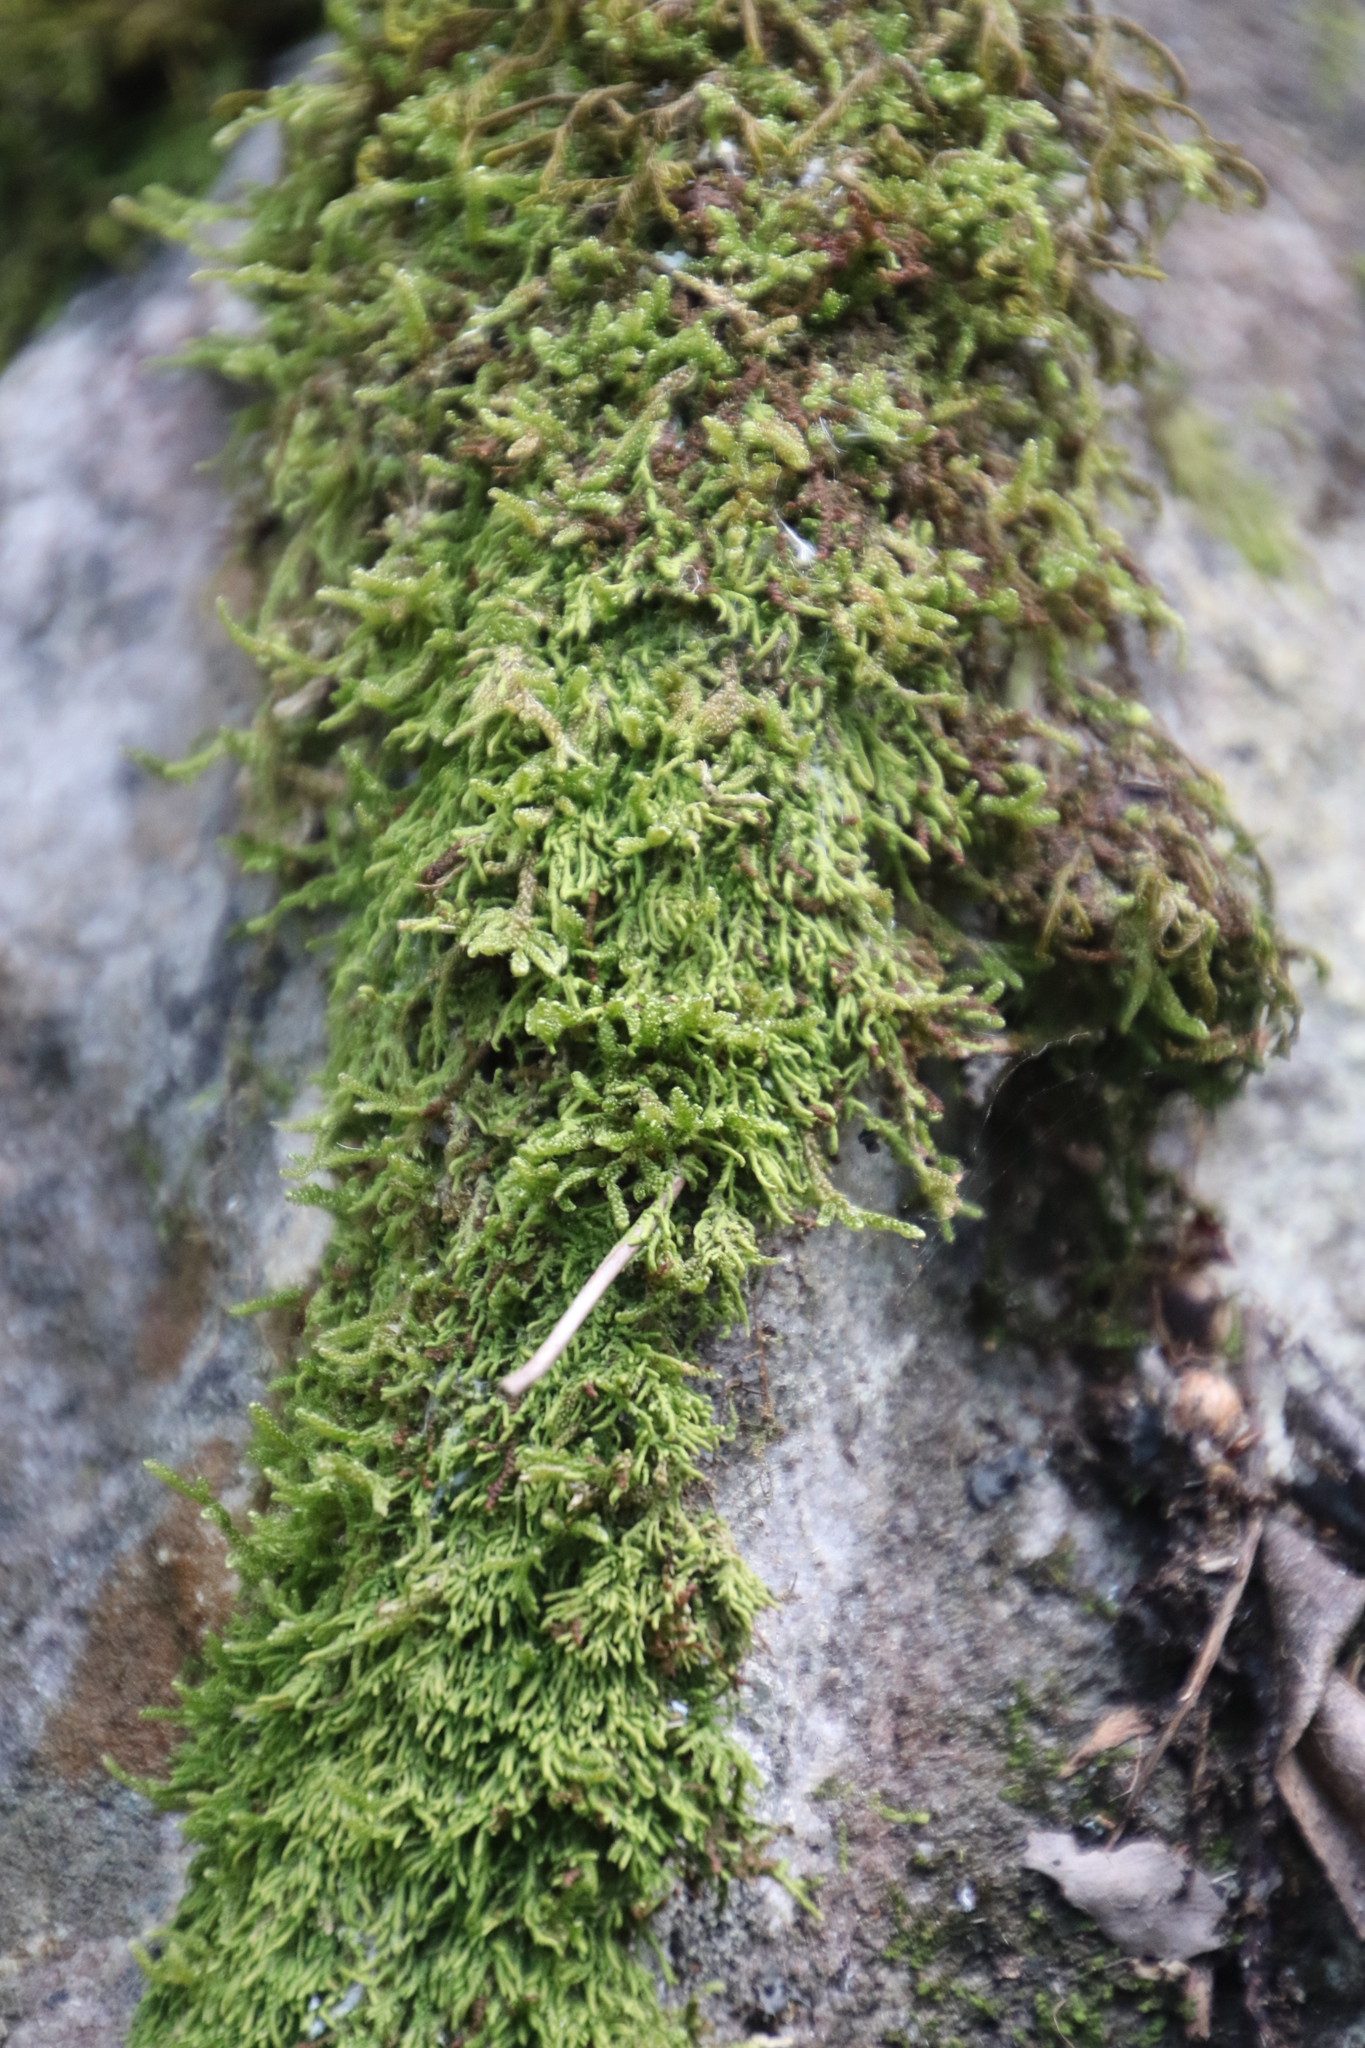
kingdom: Plantae
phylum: Bryophyta
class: Bryopsida
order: Hypnales
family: Hypnaceae
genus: Hypnum
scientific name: Hypnum cupressiforme
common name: Cypress-leaved plait-moss
